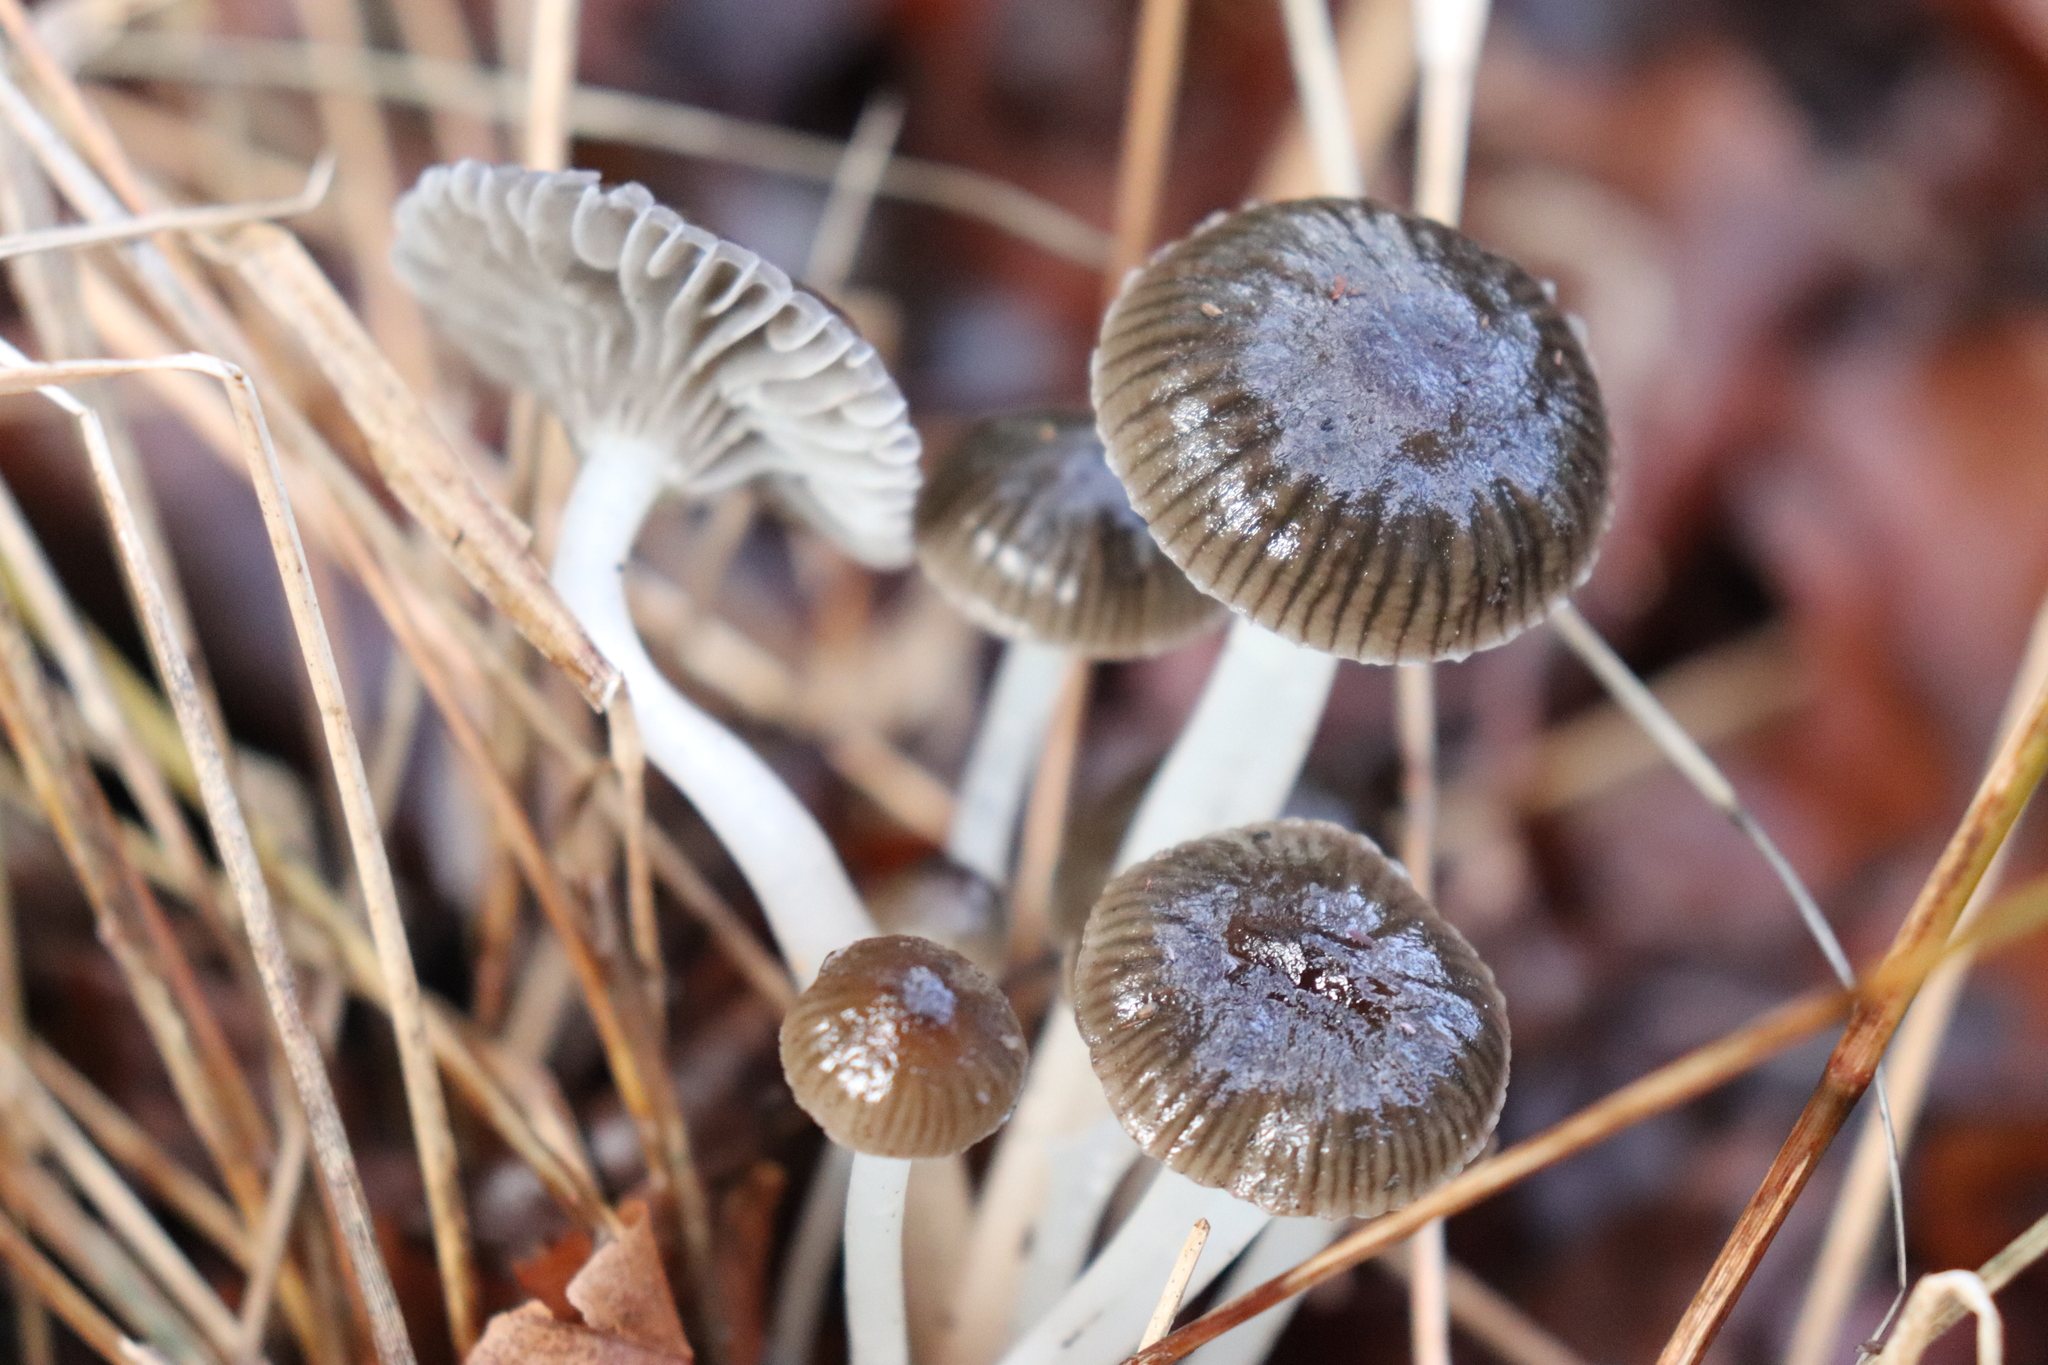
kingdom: Fungi
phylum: Basidiomycota
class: Agaricomycetes
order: Agaricales
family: Mycenaceae
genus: Mycena
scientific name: Mycena helminthobasis
